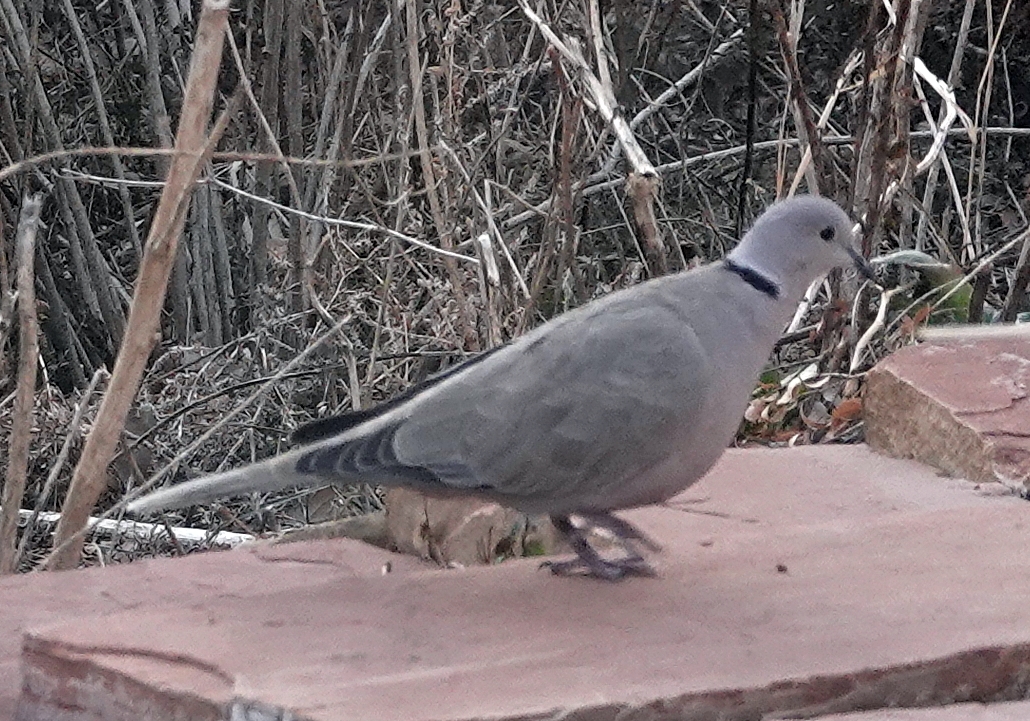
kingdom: Animalia
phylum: Chordata
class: Aves
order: Columbiformes
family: Columbidae
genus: Streptopelia
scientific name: Streptopelia decaocto
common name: Eurasian collared dove
